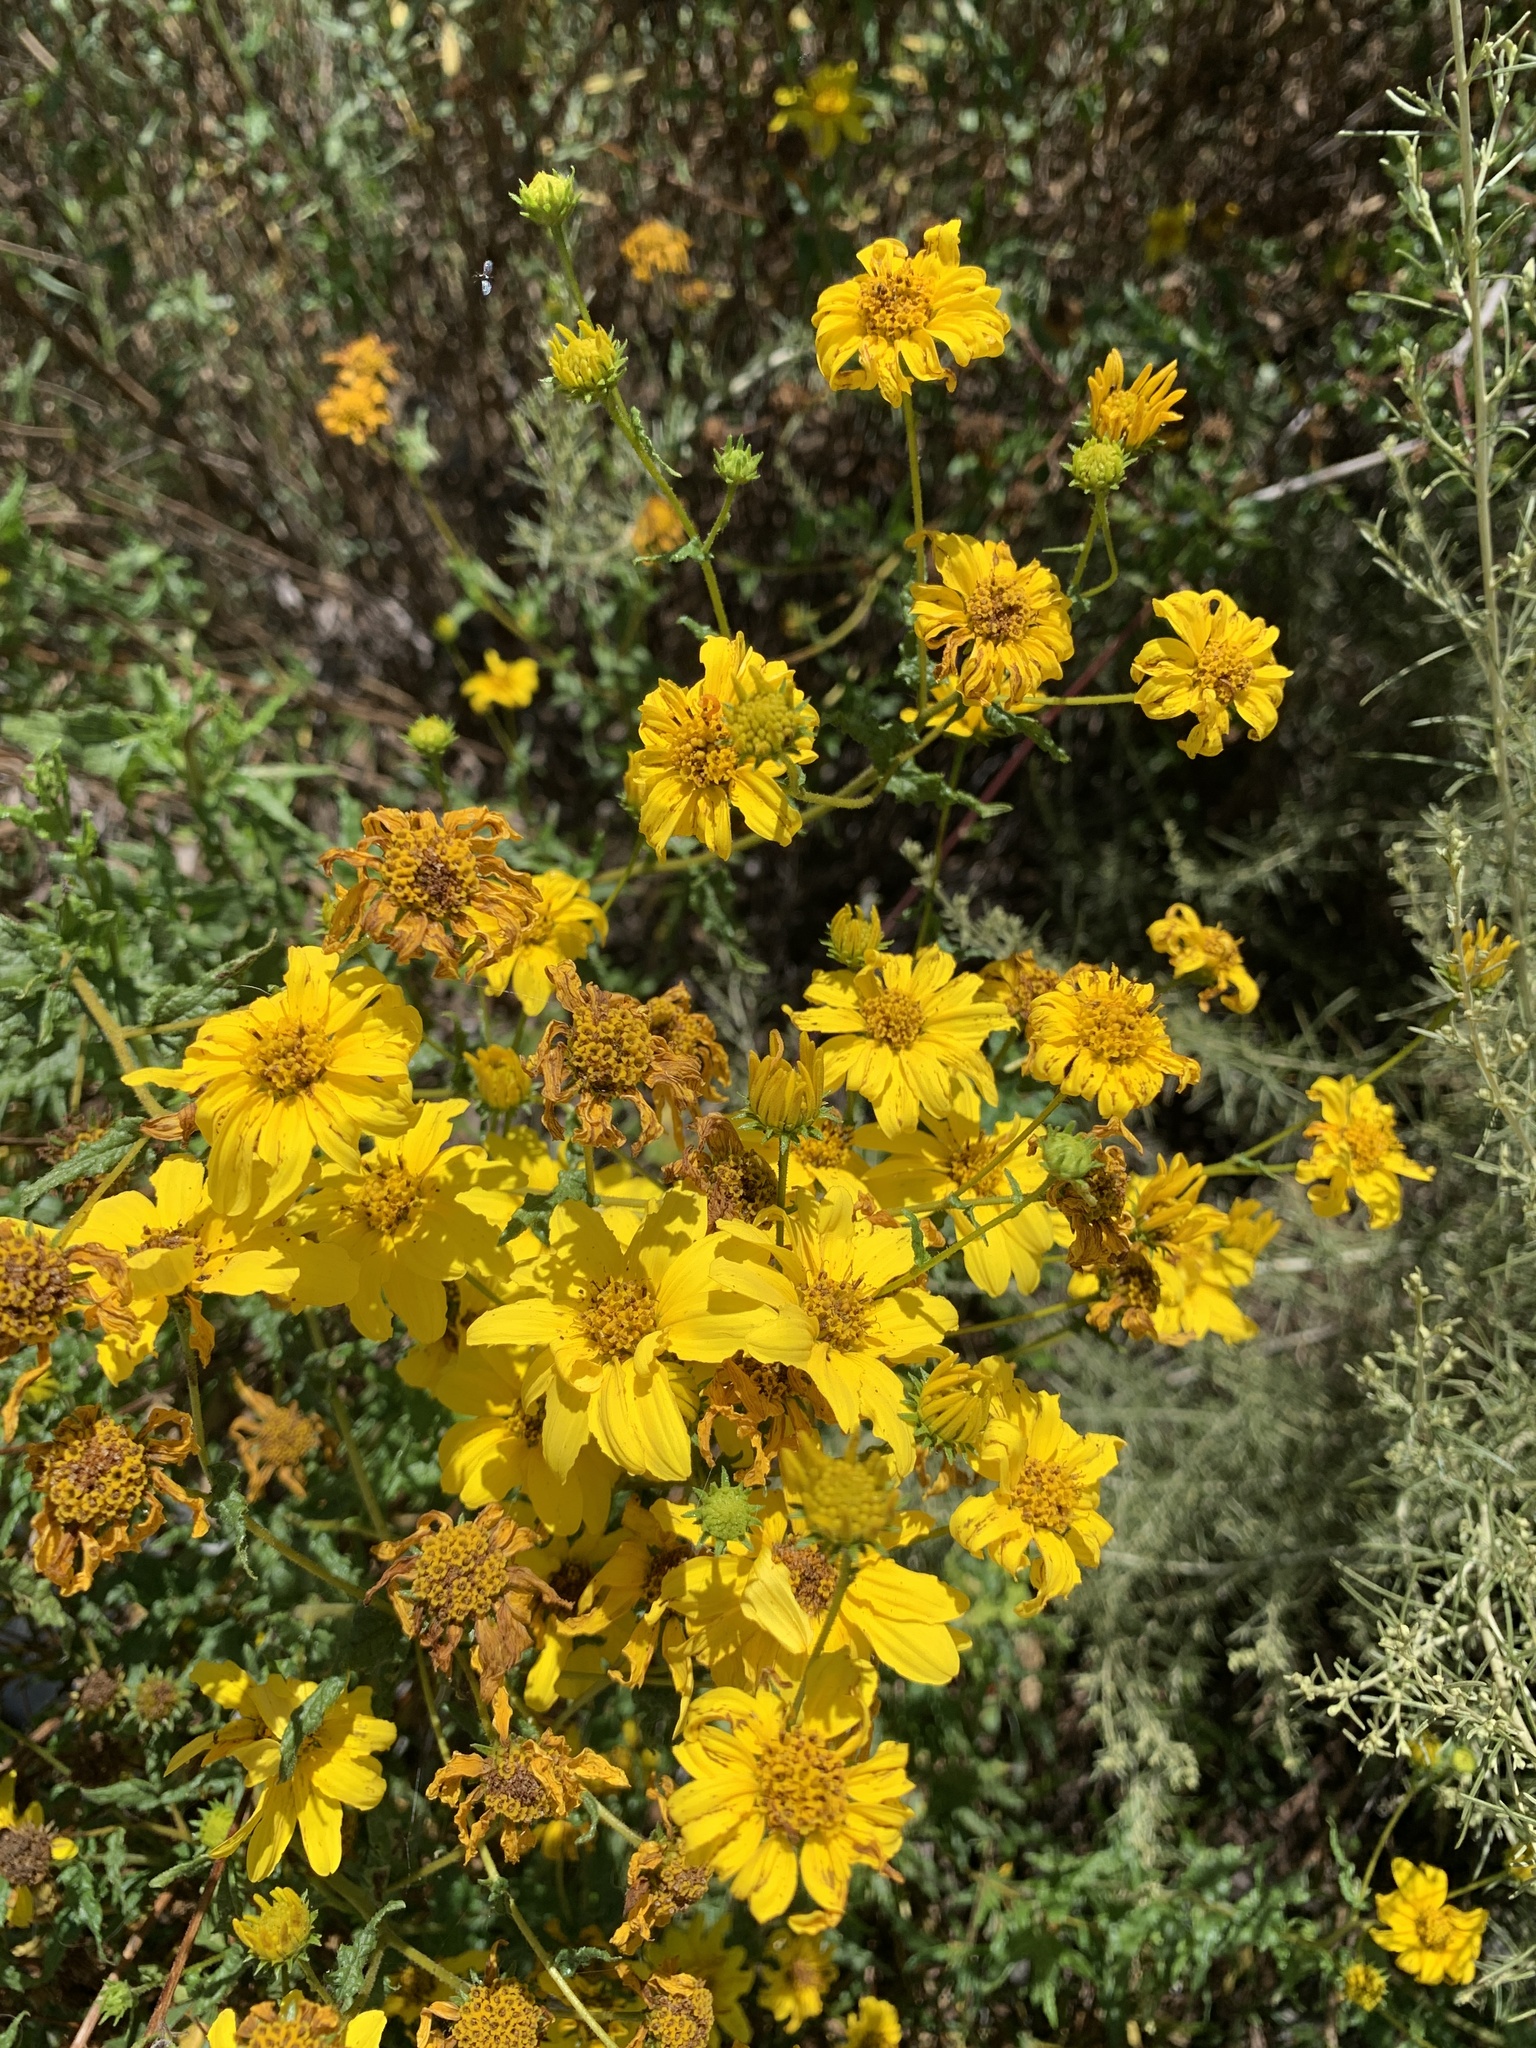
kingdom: Plantae
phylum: Tracheophyta
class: Magnoliopsida
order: Asterales
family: Asteraceae
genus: Bahiopsis
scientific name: Bahiopsis laciniata
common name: San diego county viguiera
